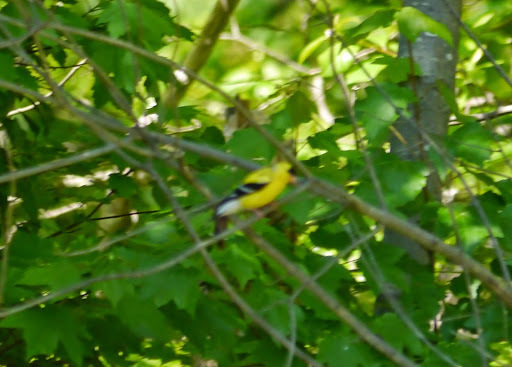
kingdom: Animalia
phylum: Chordata
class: Aves
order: Passeriformes
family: Fringillidae
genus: Spinus
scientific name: Spinus tristis
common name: American goldfinch
